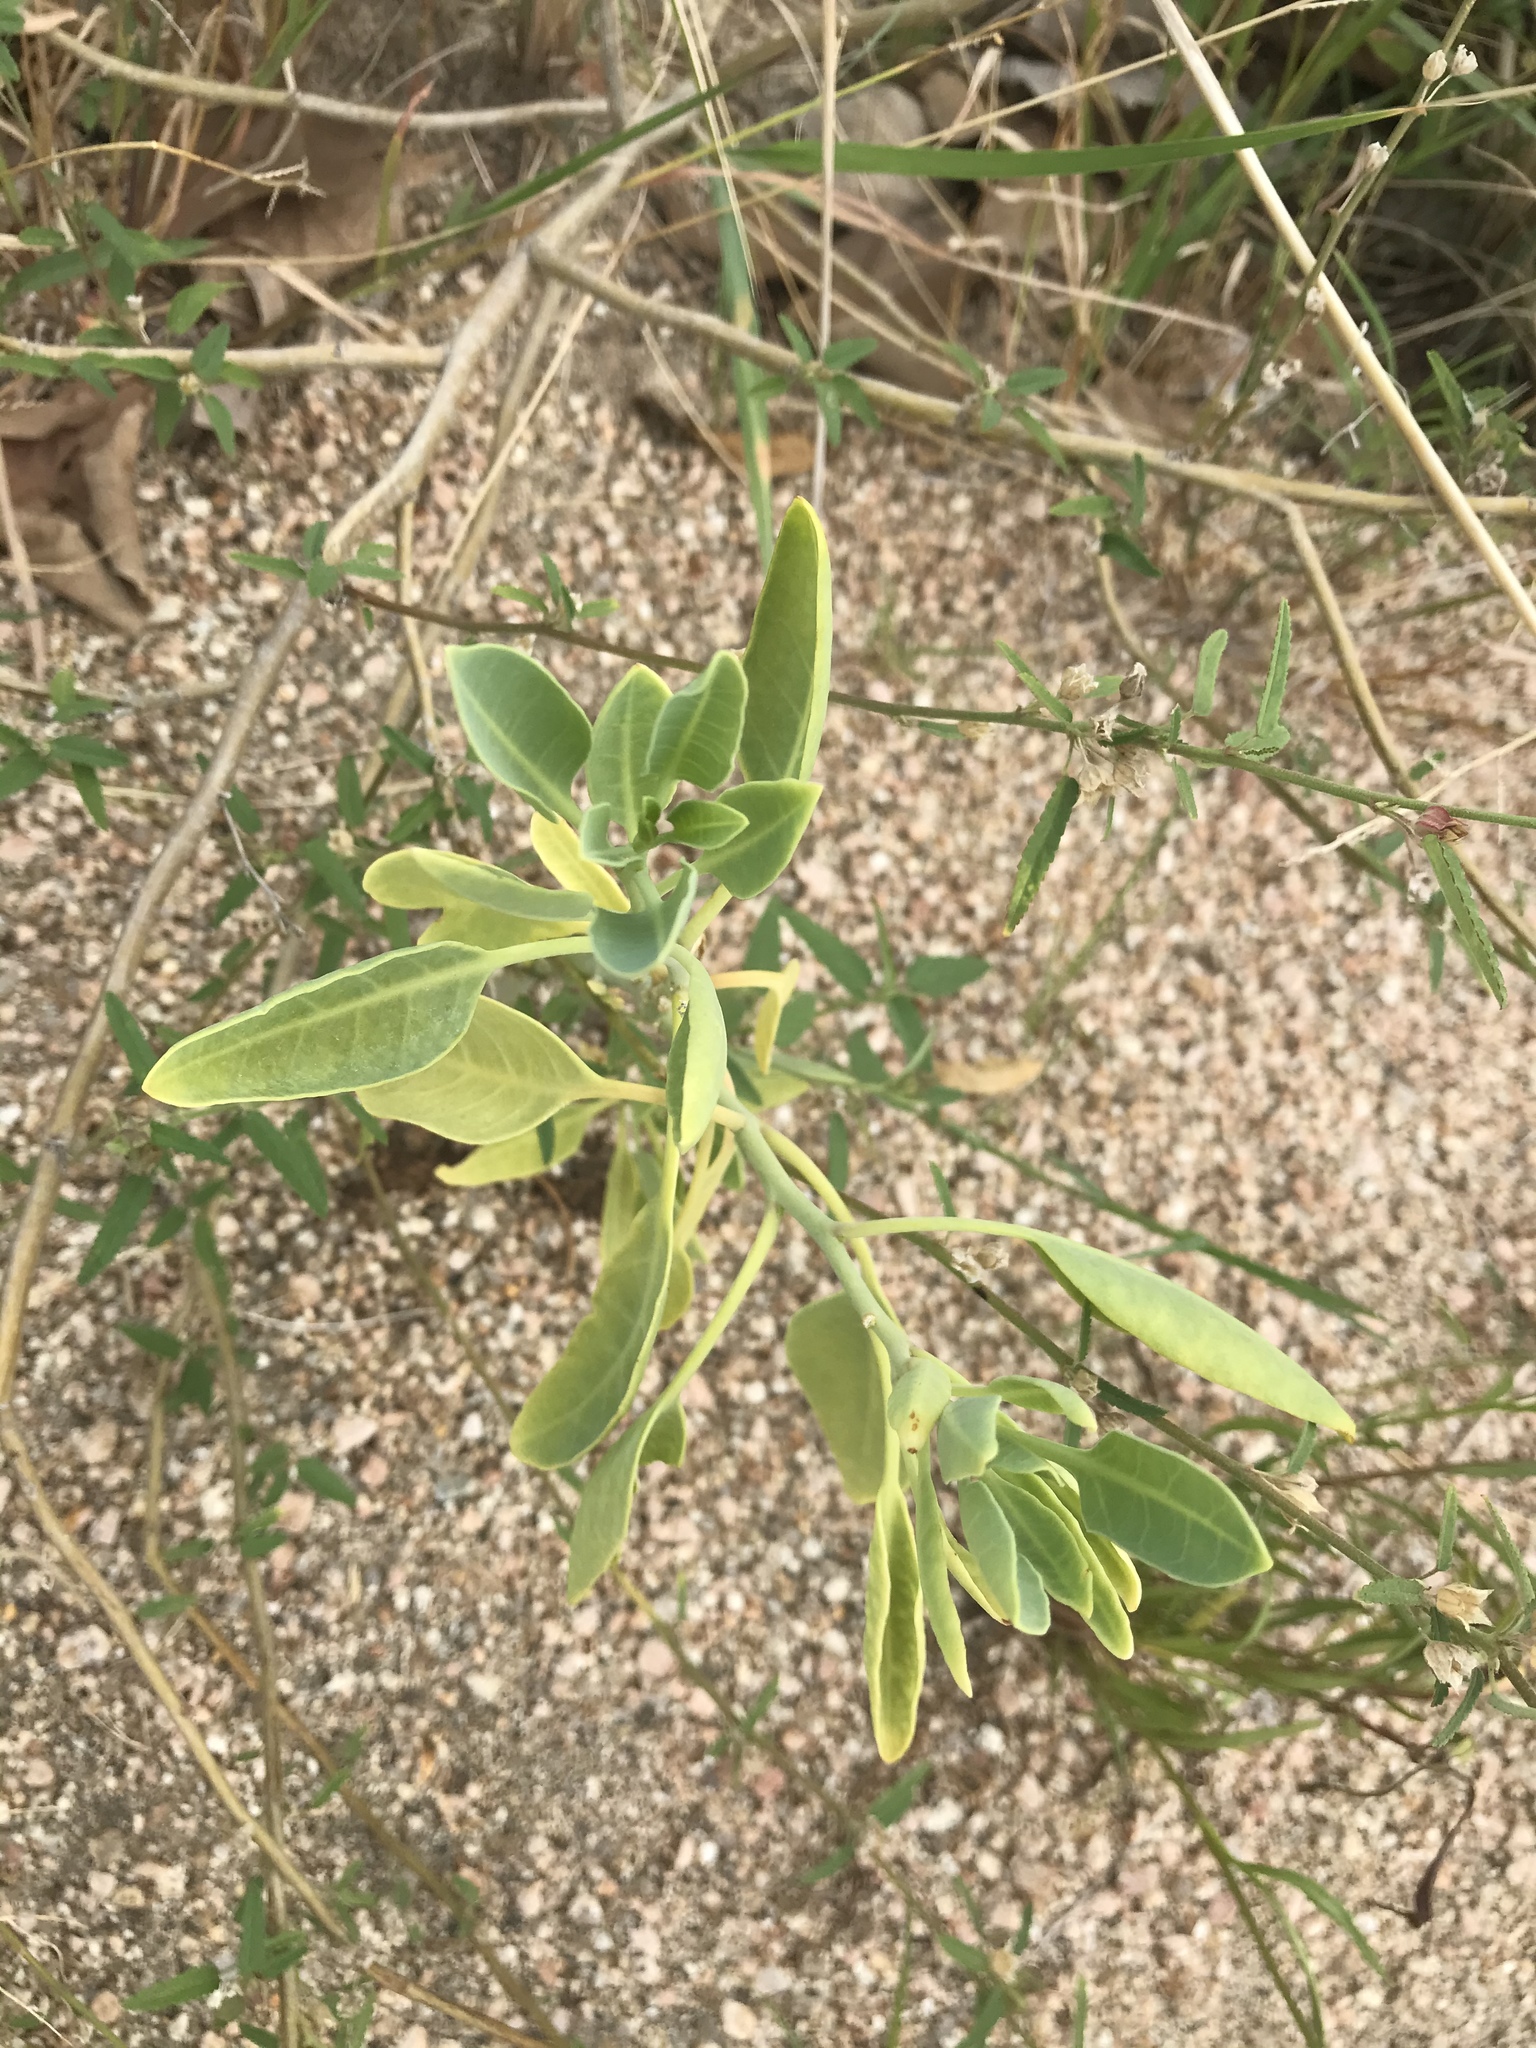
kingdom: Plantae
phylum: Tracheophyta
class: Magnoliopsida
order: Solanales
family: Solanaceae
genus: Nicotiana
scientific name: Nicotiana glauca
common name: Tree tobacco
